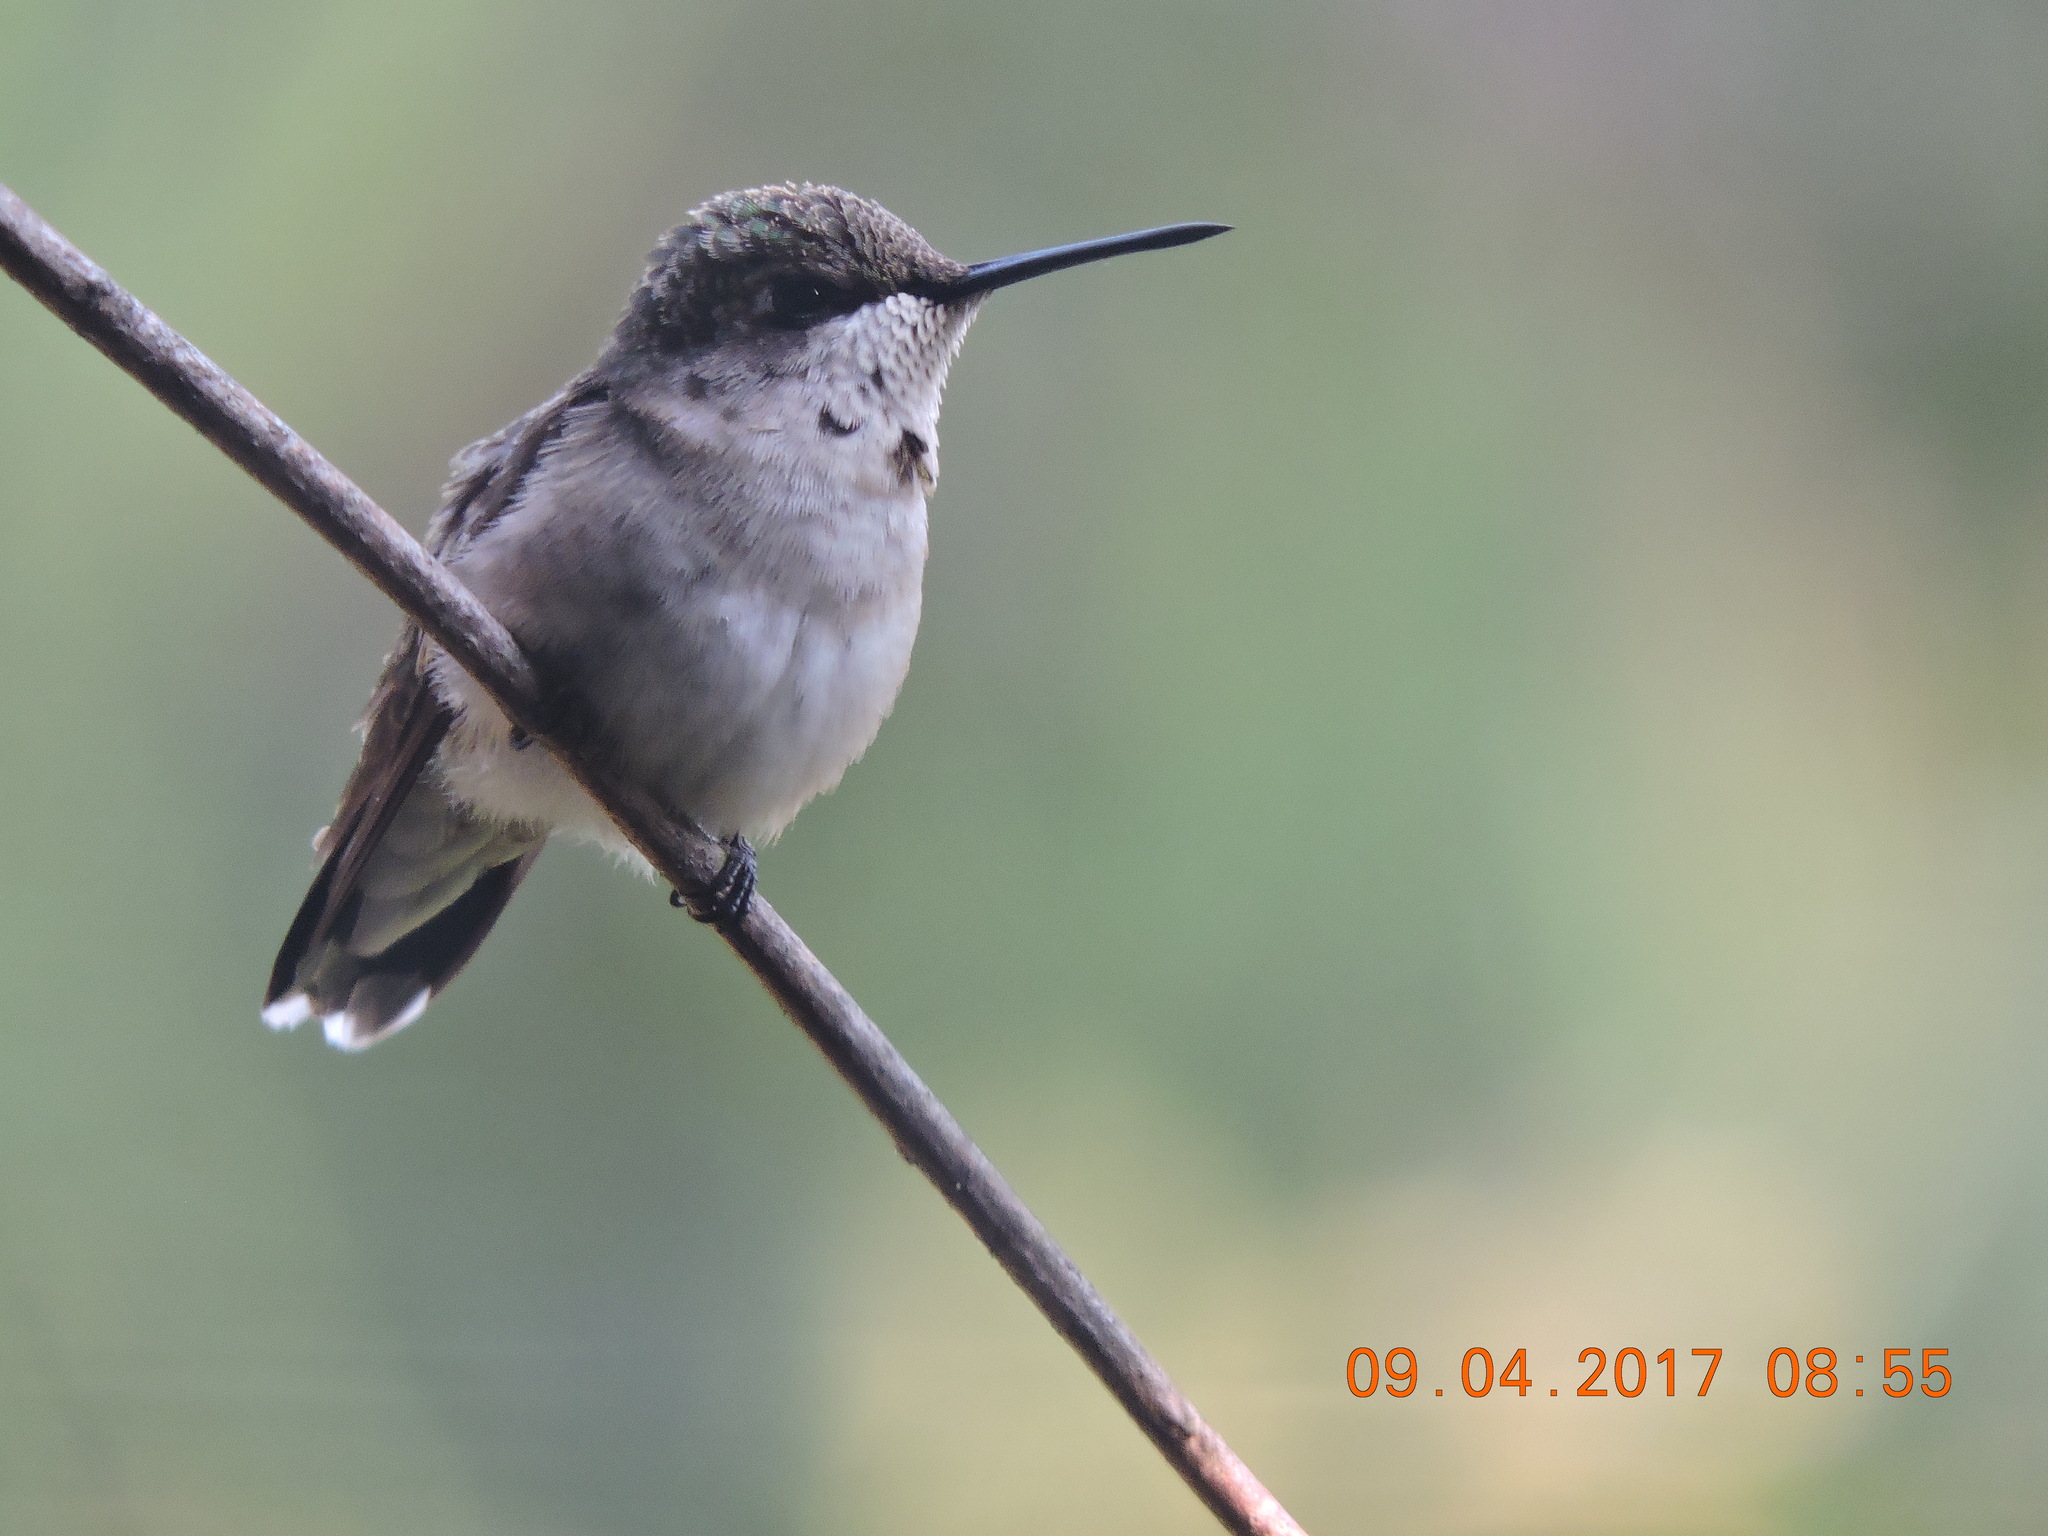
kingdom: Animalia
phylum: Chordata
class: Aves
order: Apodiformes
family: Trochilidae
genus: Archilochus
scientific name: Archilochus colubris
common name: Ruby-throated hummingbird
